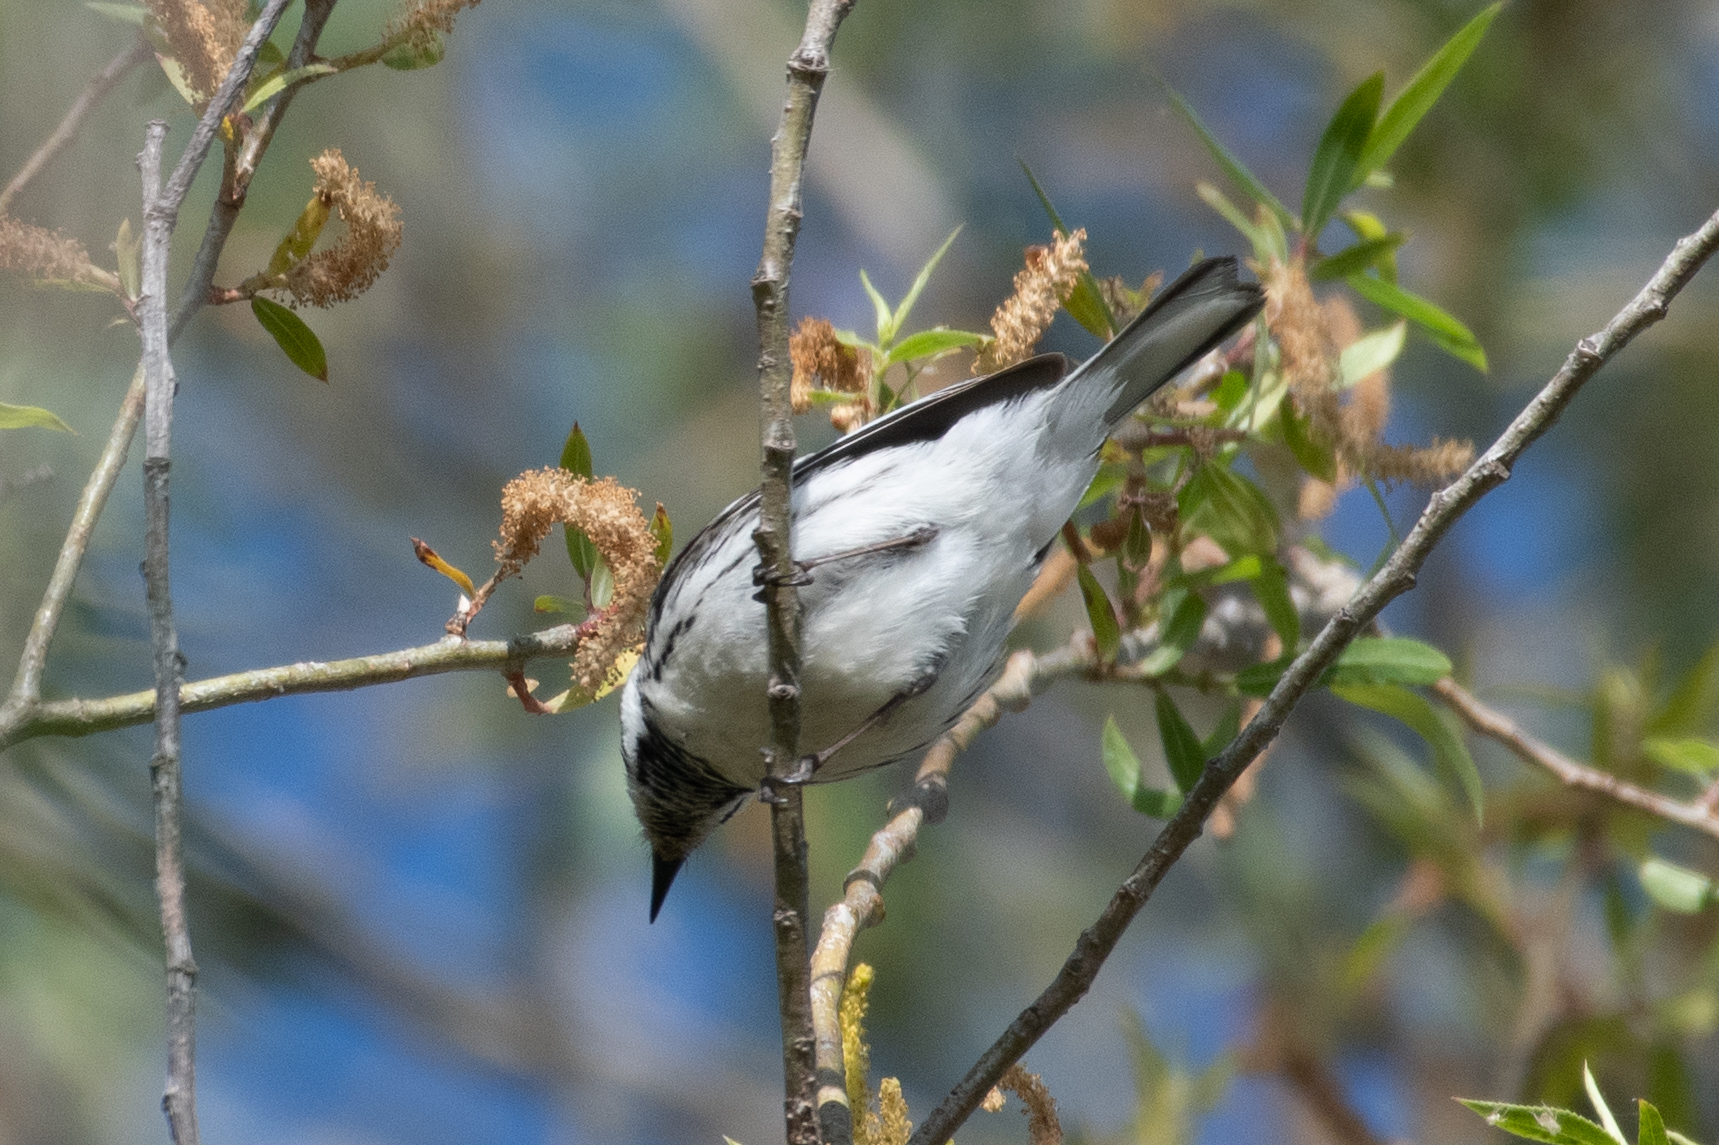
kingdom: Animalia
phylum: Chordata
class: Aves
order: Passeriformes
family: Parulidae
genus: Setophaga
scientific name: Setophaga nigrescens
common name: Black-throated gray warbler
